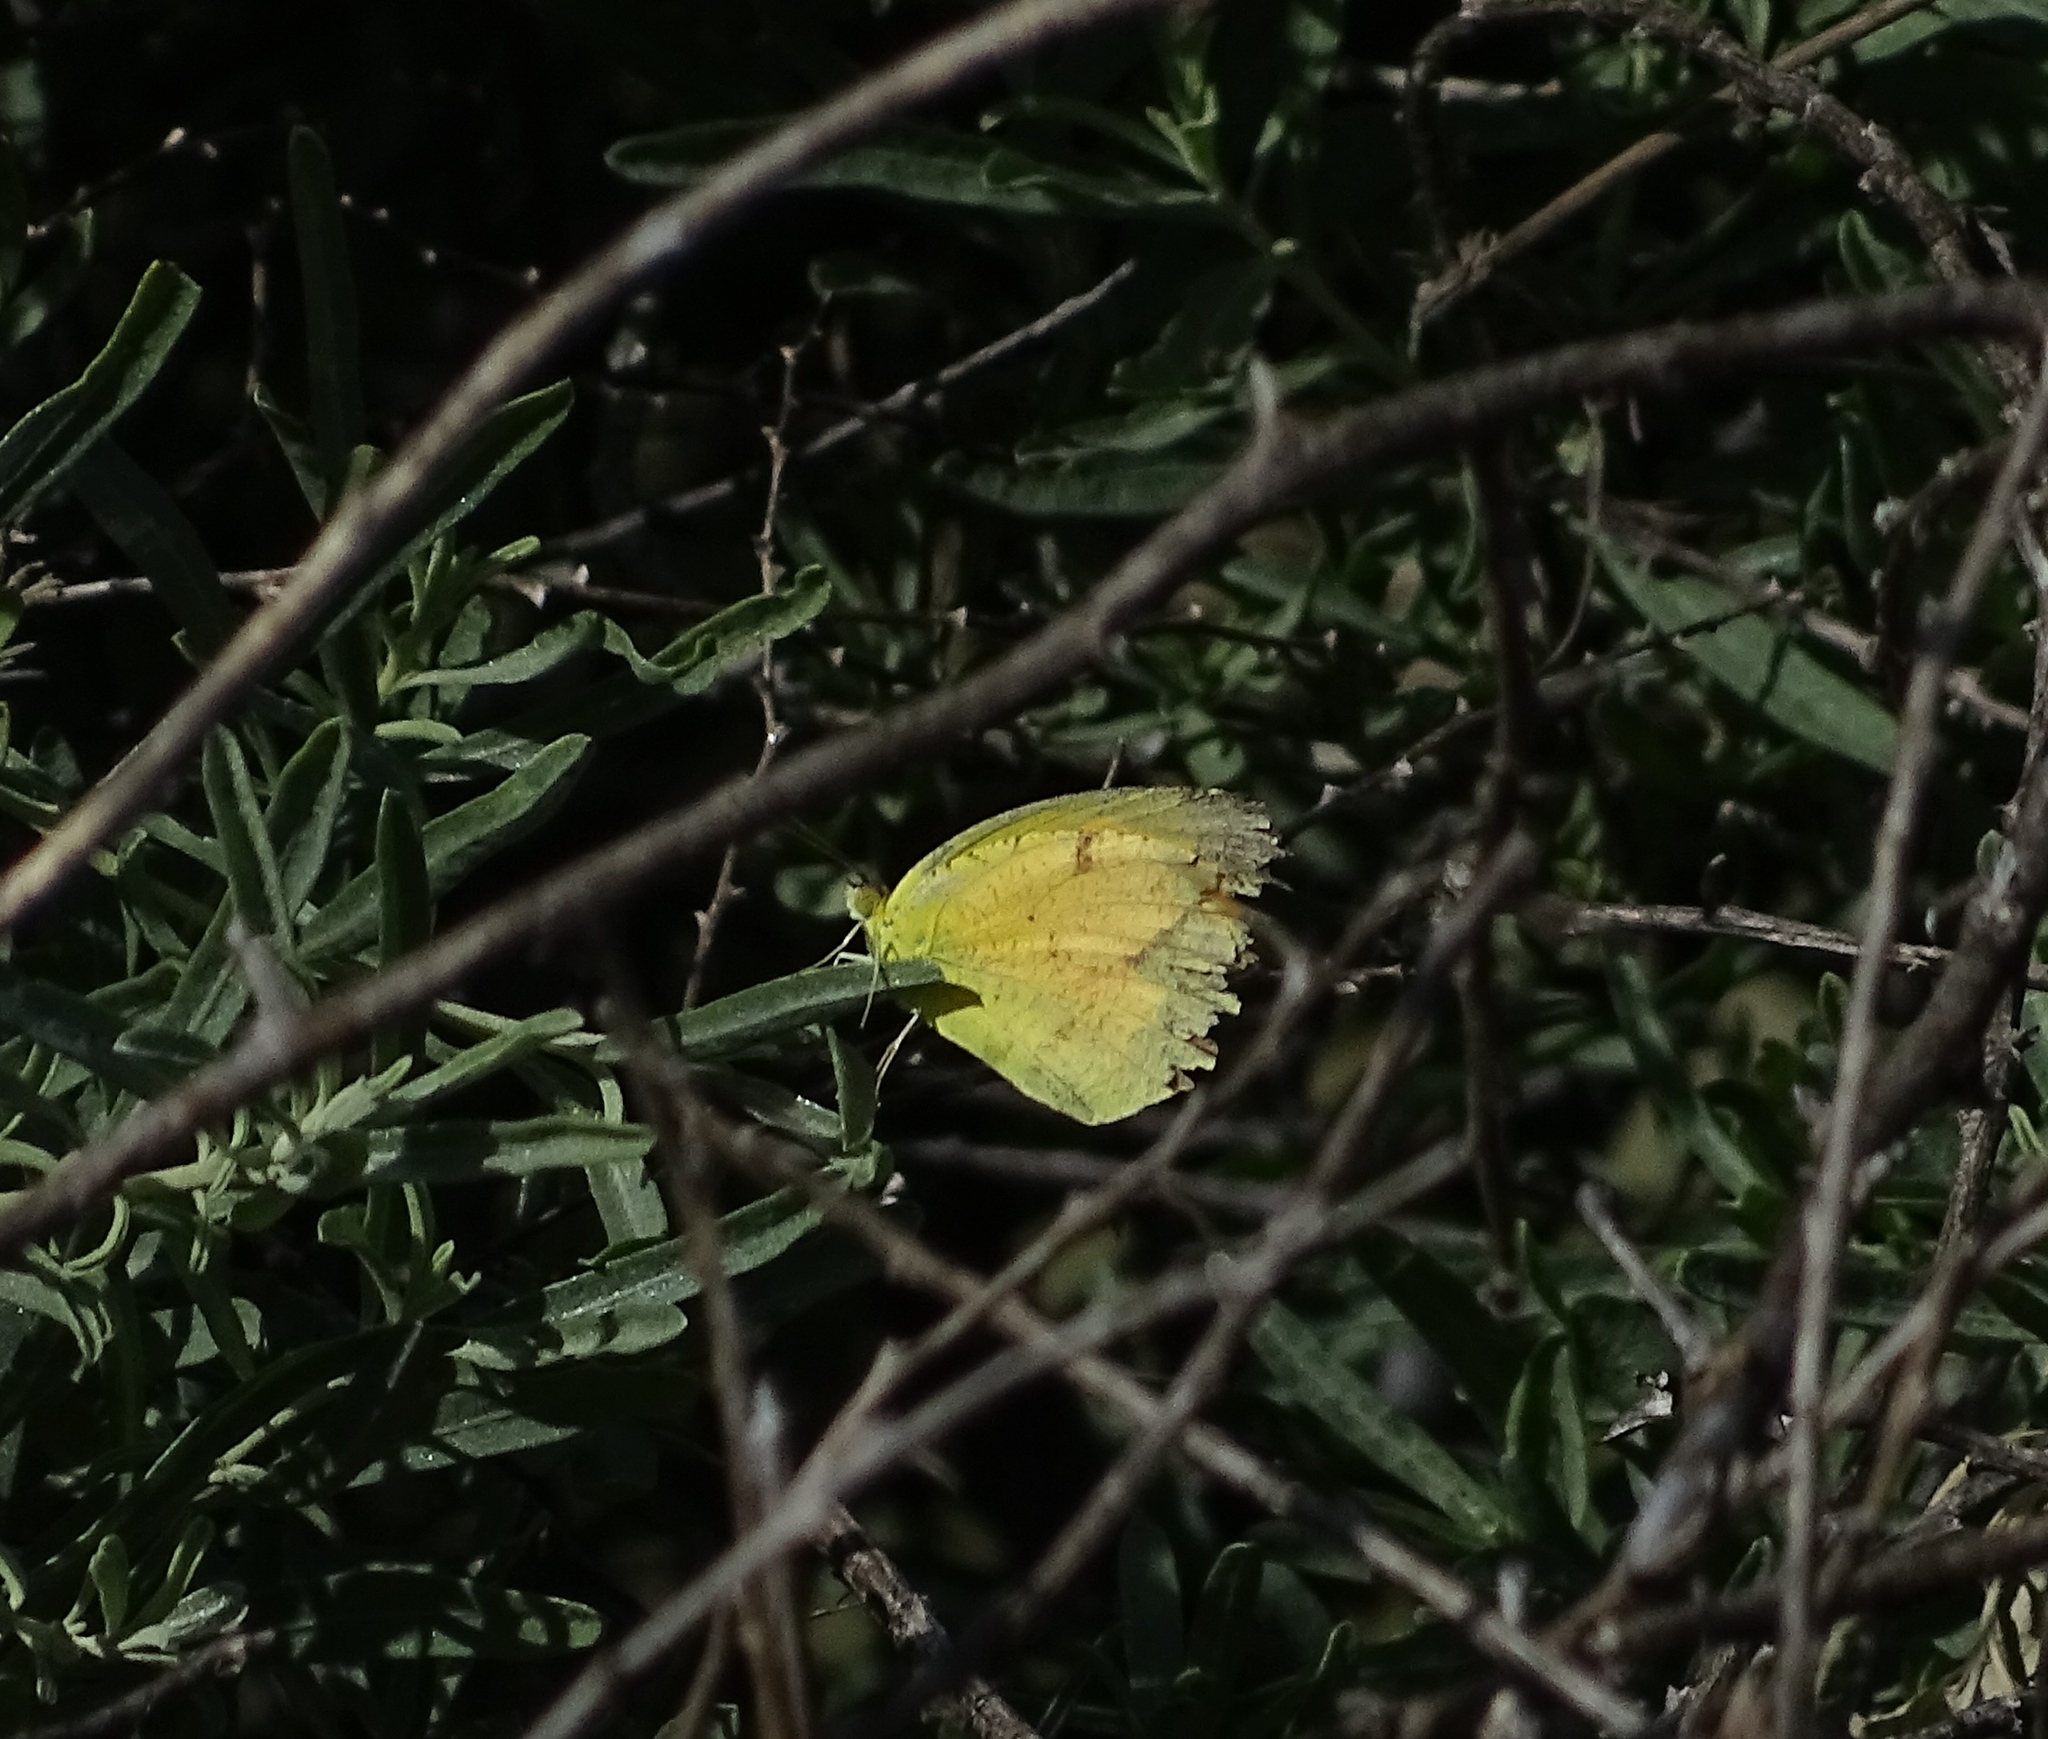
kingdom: Animalia
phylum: Arthropoda
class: Insecta
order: Lepidoptera
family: Pieridae
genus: Abaeis
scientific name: Abaeis nicippe
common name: Sleepy orange
